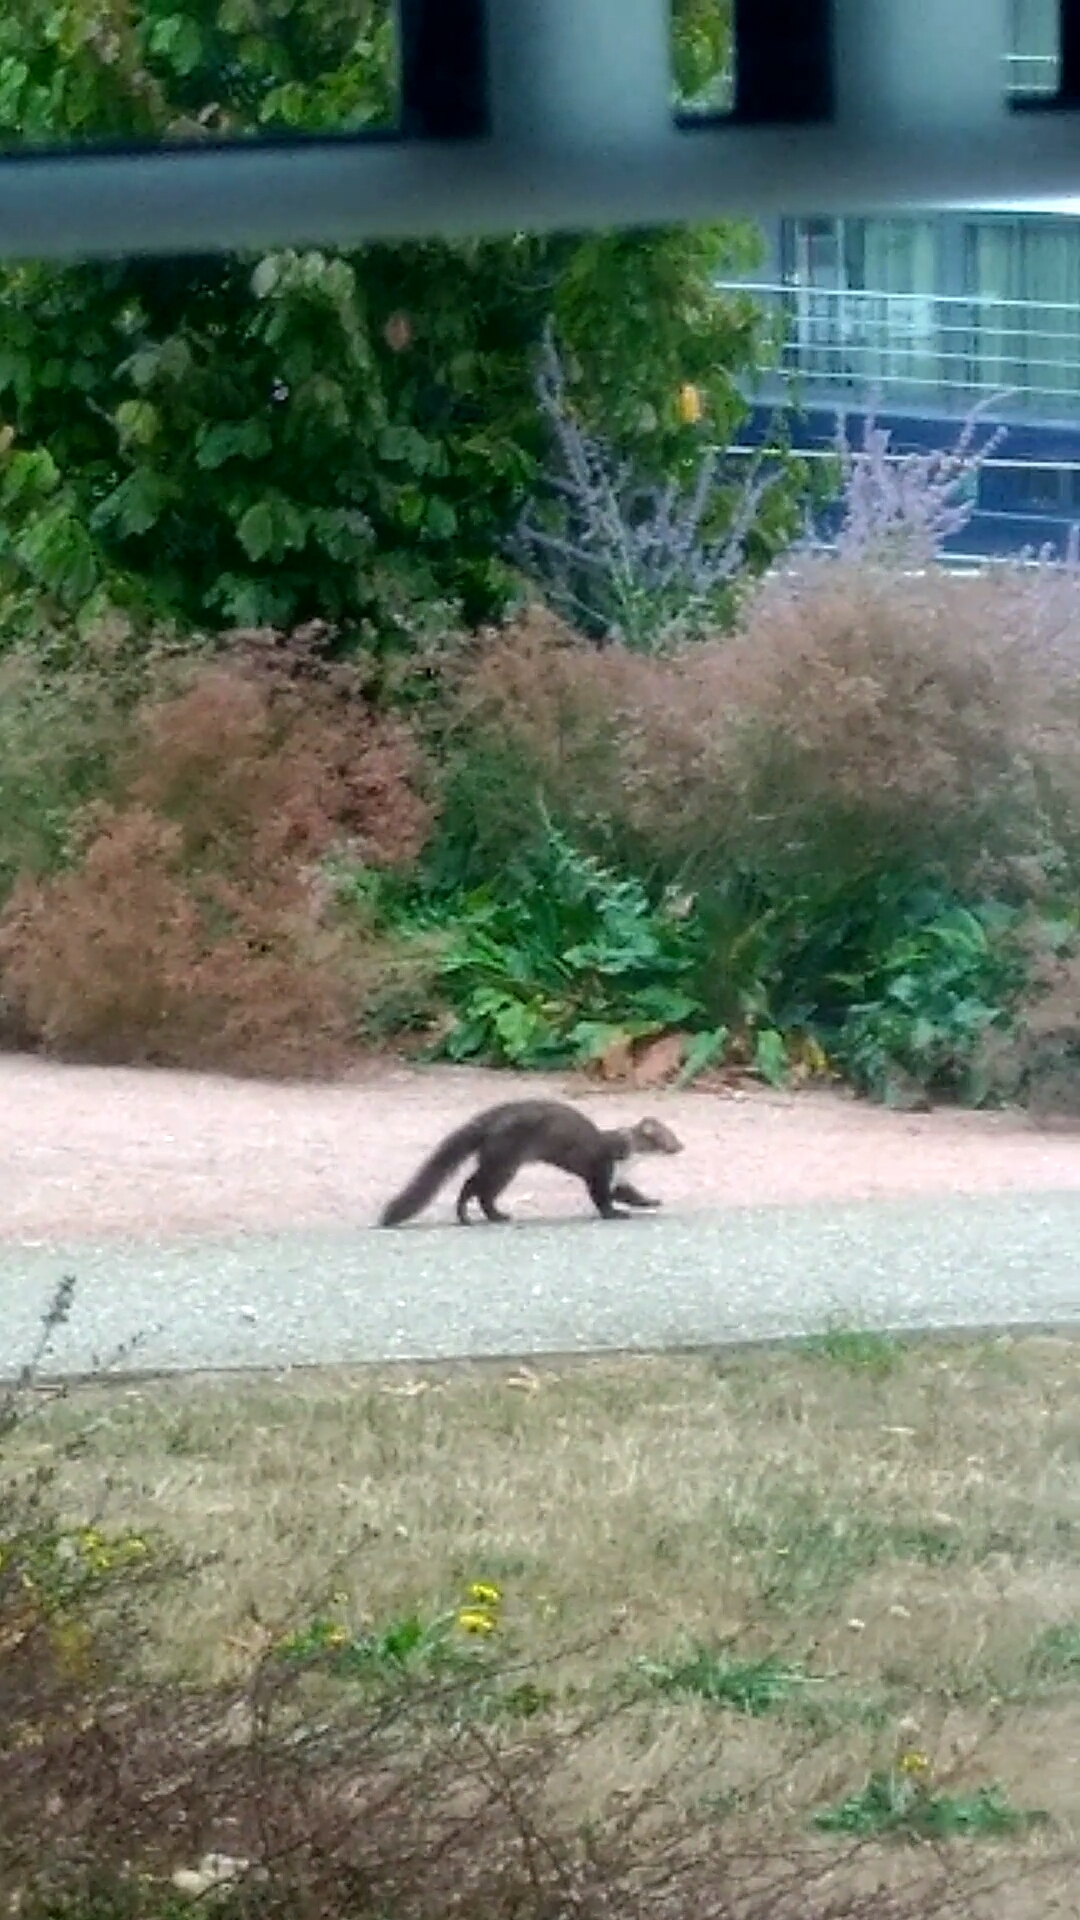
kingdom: Animalia
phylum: Chordata
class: Mammalia
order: Carnivora
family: Mustelidae
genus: Martes
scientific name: Martes foina
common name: Beech marten
